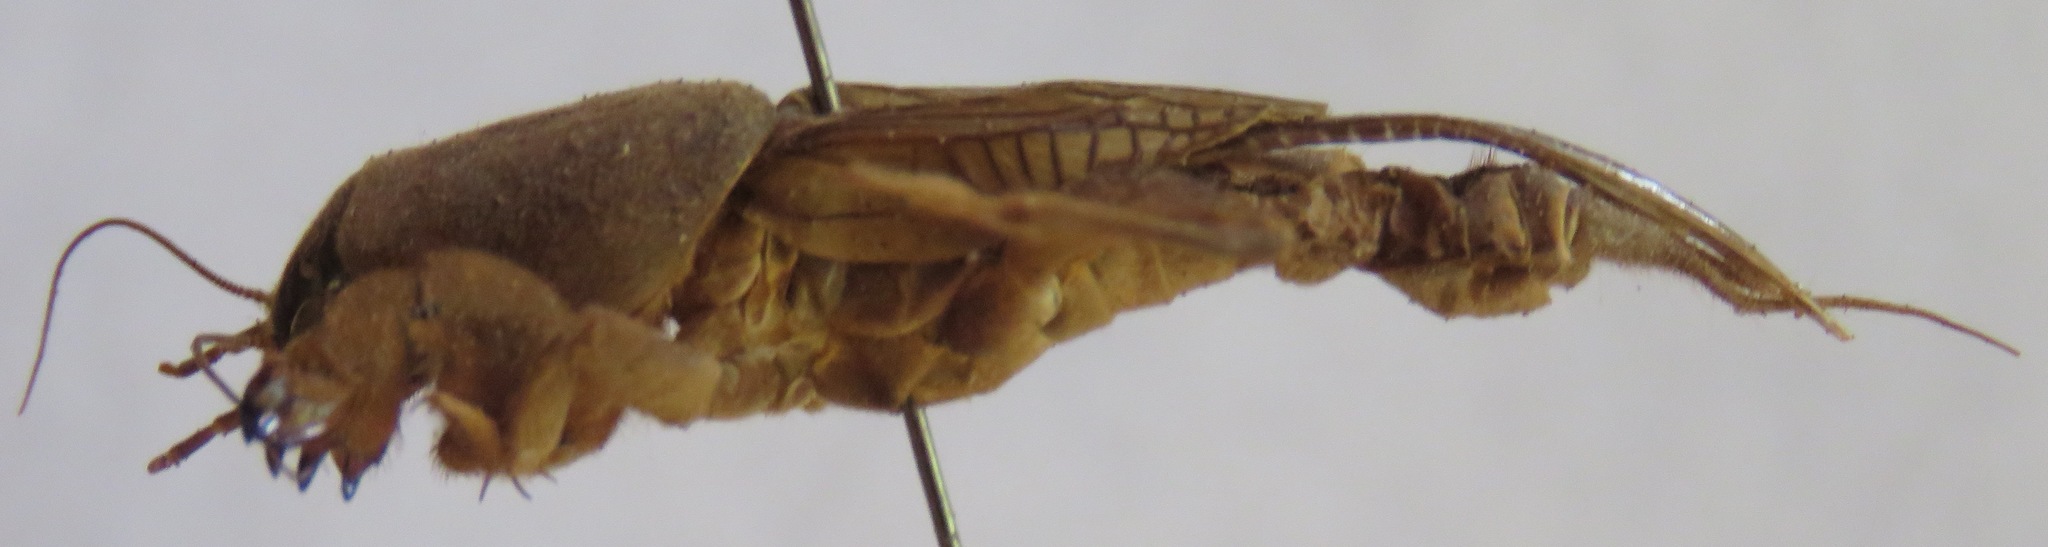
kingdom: Animalia
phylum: Arthropoda
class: Insecta
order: Orthoptera
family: Gryllotalpidae
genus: Neocurtilla
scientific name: Neocurtilla hexadactyla
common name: Northern mole cricket
